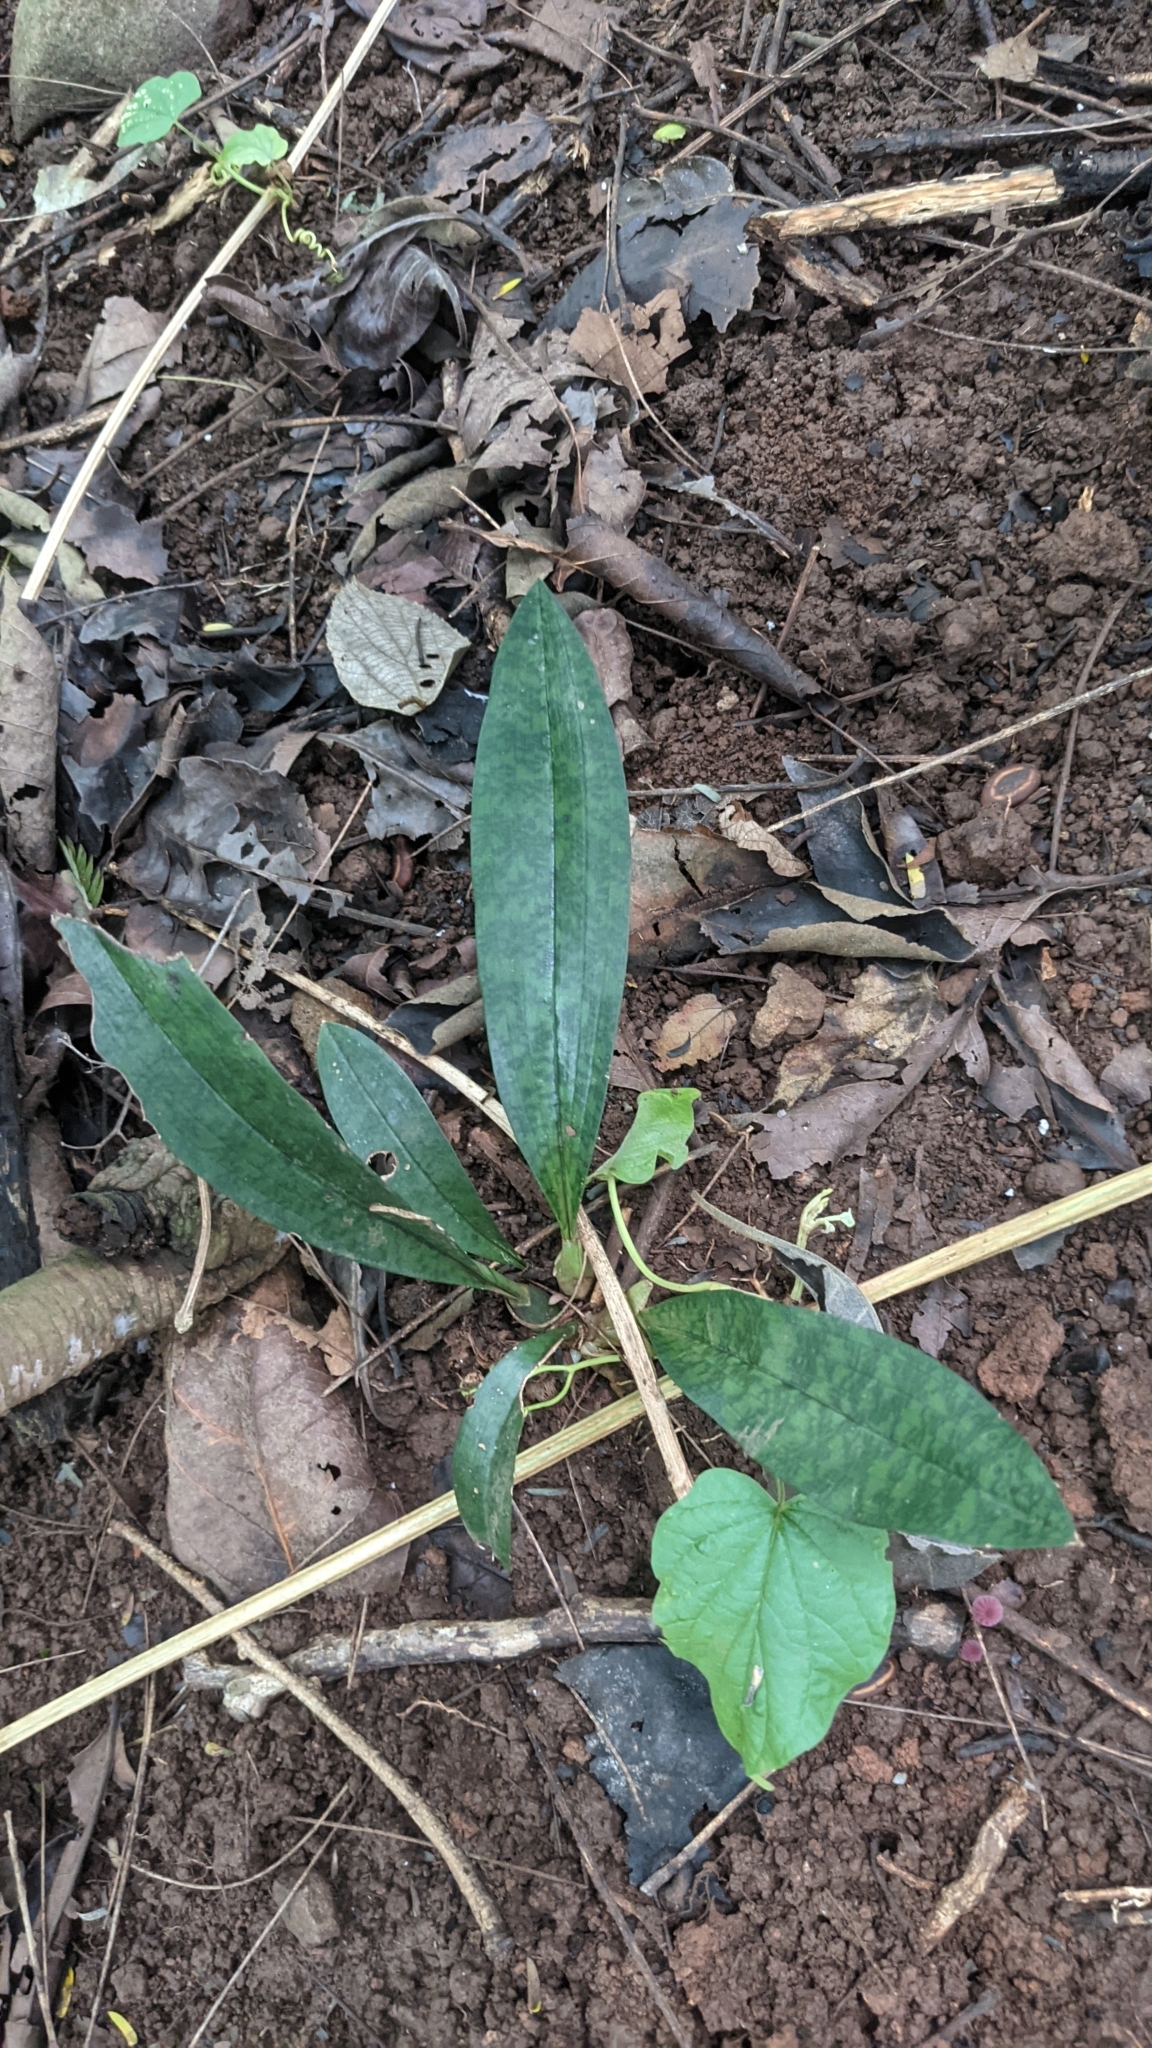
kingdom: Plantae
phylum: Tracheophyta
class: Liliopsida
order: Asparagales
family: Orchidaceae
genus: Eulophia
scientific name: Eulophia maculata
